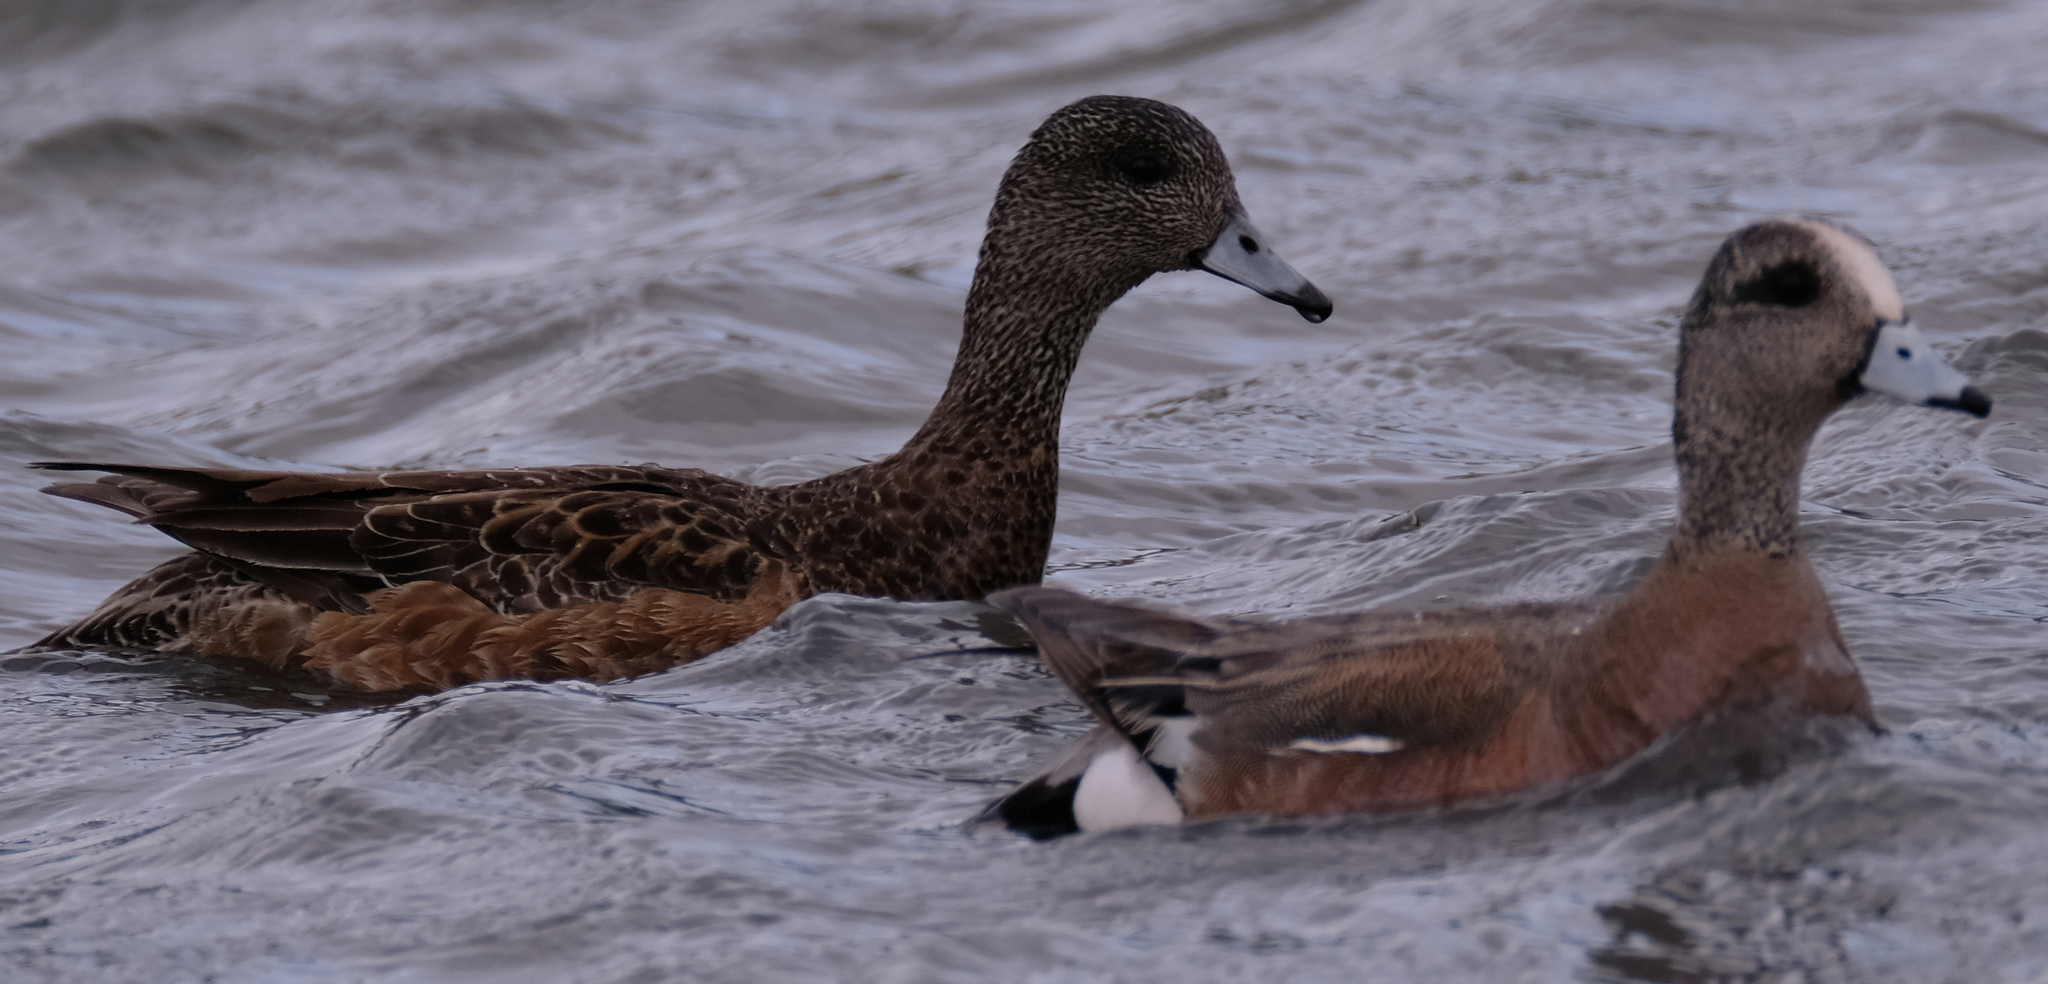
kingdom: Animalia
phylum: Chordata
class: Aves
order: Anseriformes
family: Anatidae
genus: Mareca
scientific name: Mareca americana
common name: American wigeon
